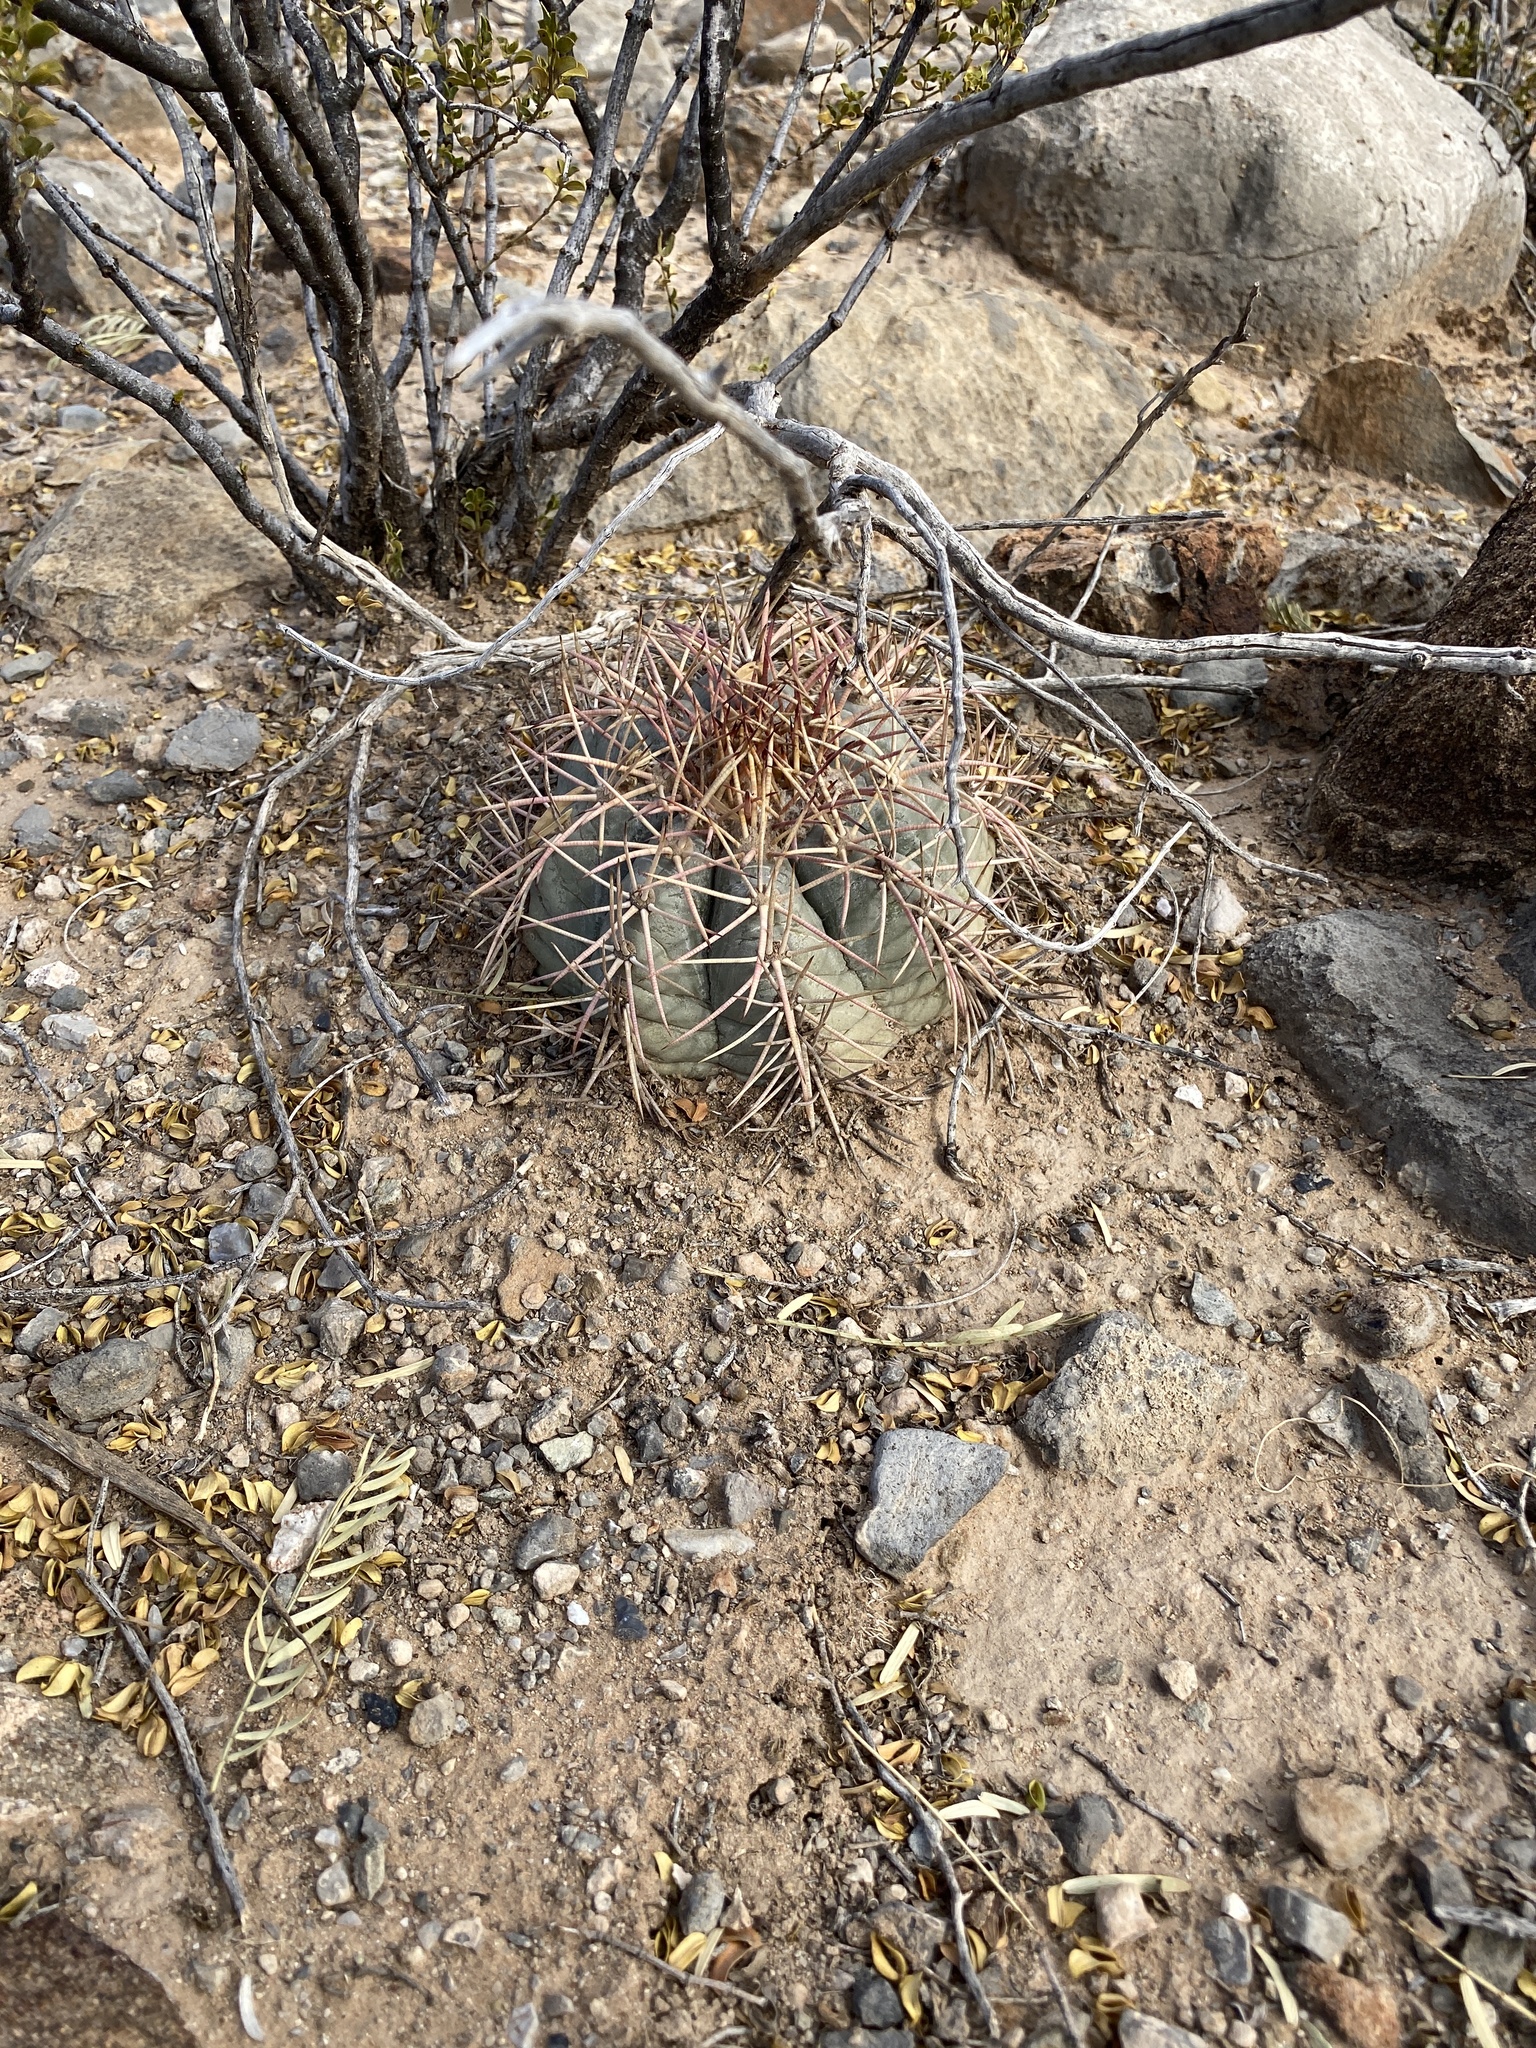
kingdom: Plantae
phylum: Tracheophyta
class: Magnoliopsida
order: Caryophyllales
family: Cactaceae
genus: Echinocactus
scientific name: Echinocactus horizonthalonius
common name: Devilshead
